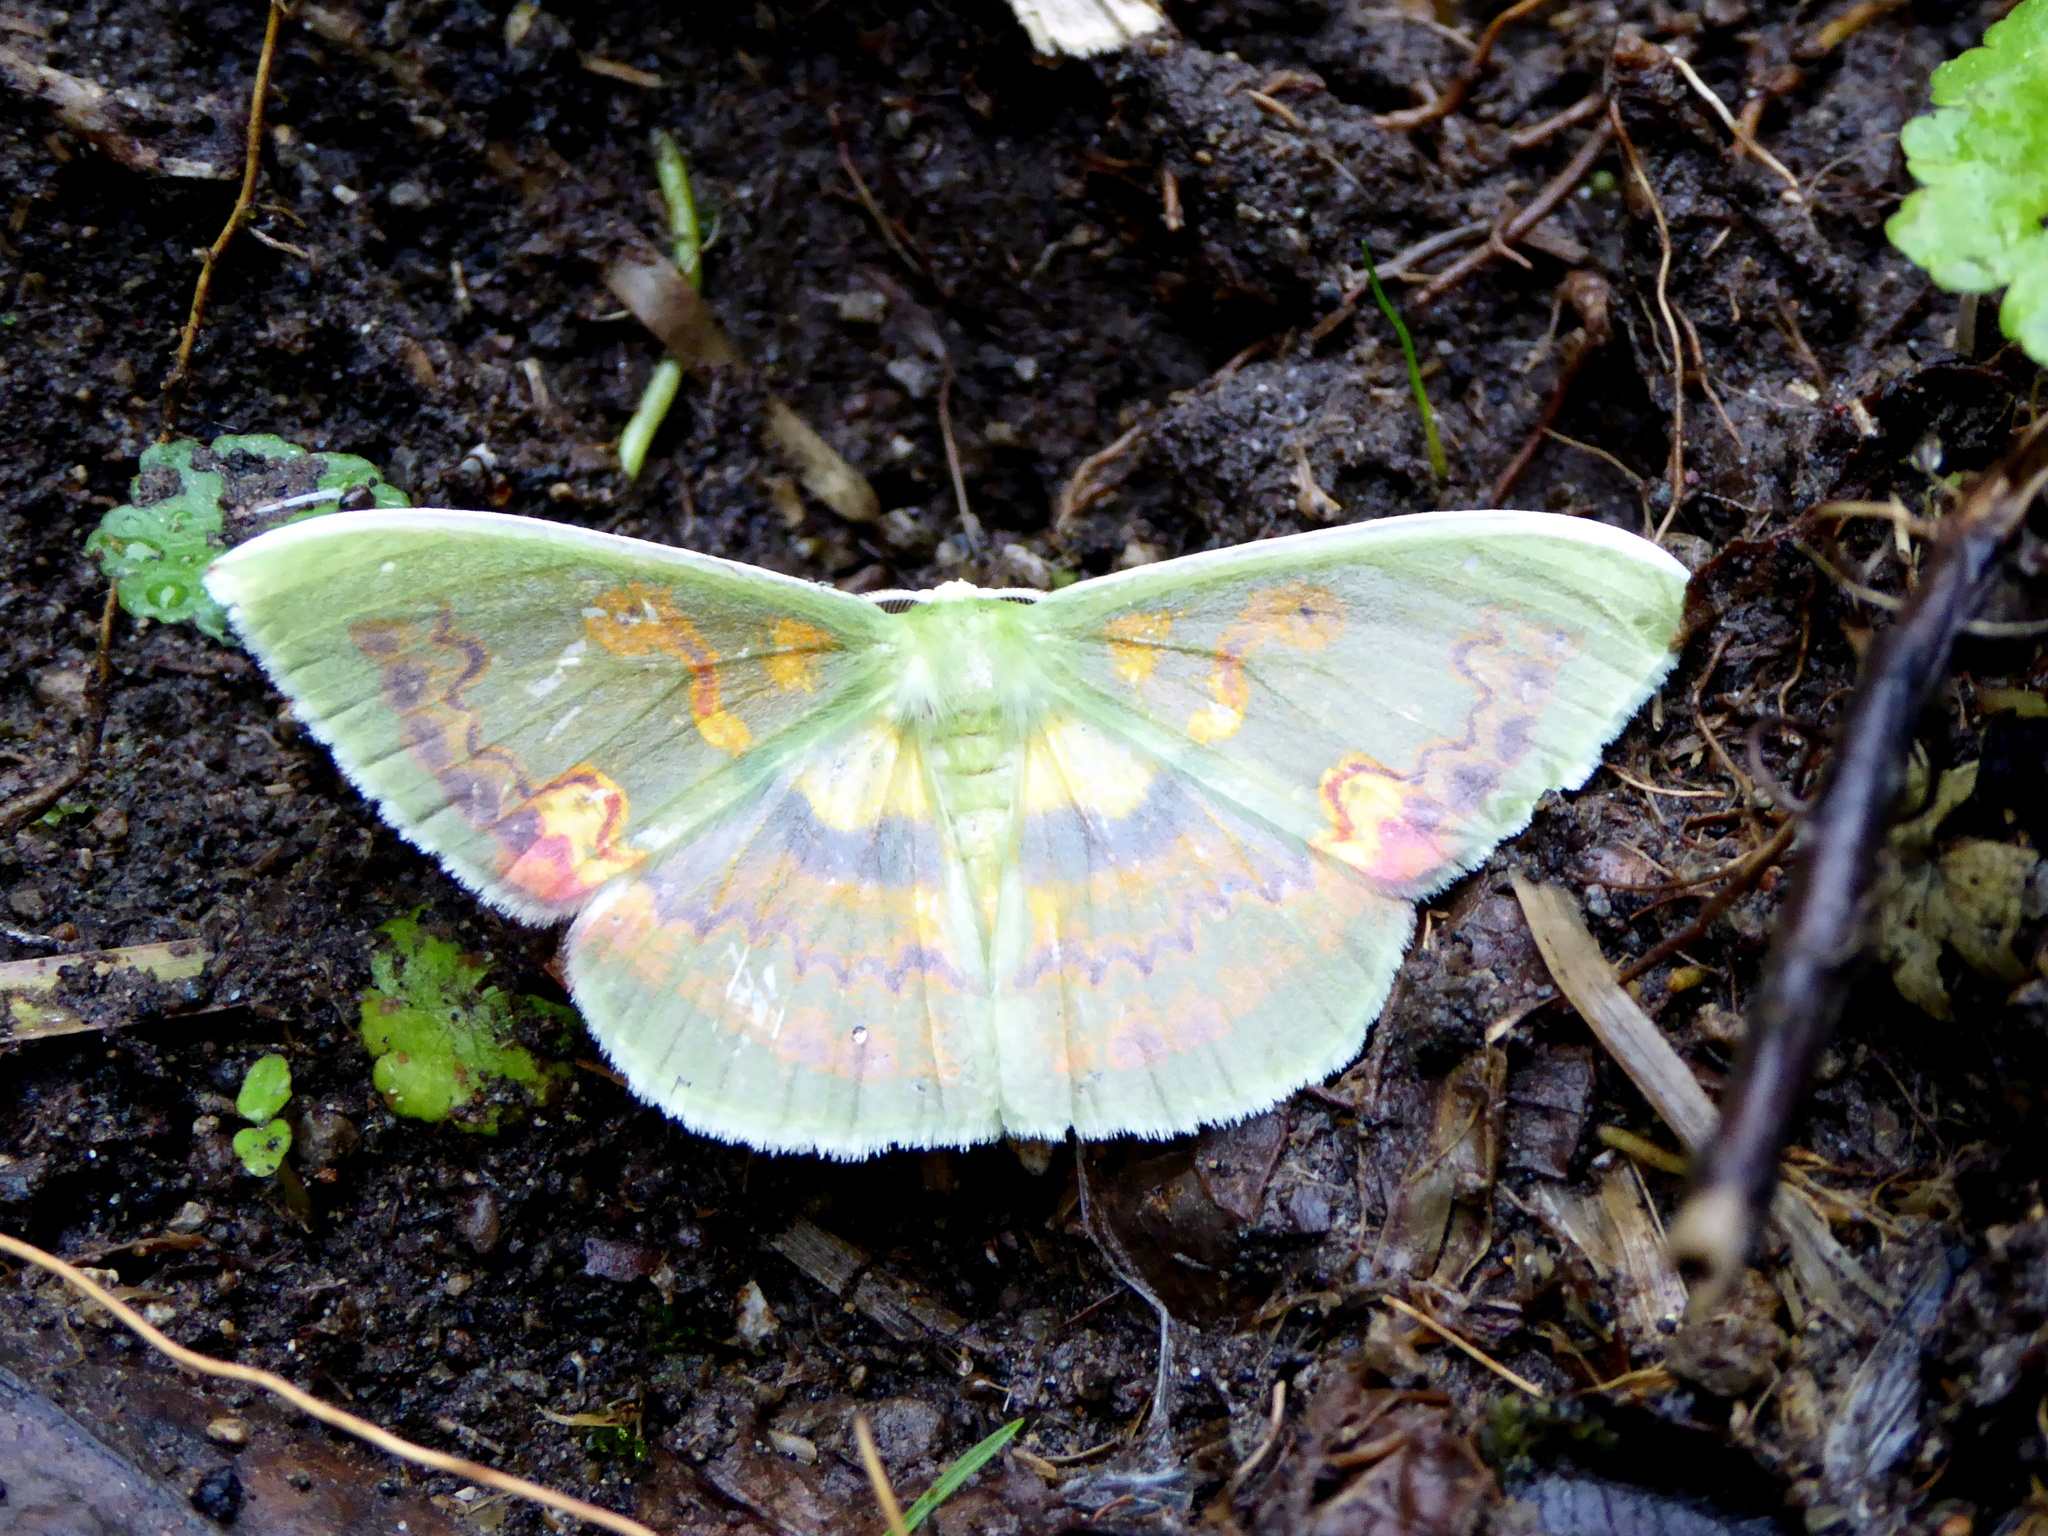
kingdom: Animalia
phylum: Arthropoda
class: Insecta
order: Lepidoptera
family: Geometridae
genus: Rhodochlora
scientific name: Rhodochlora brunneipalpis
